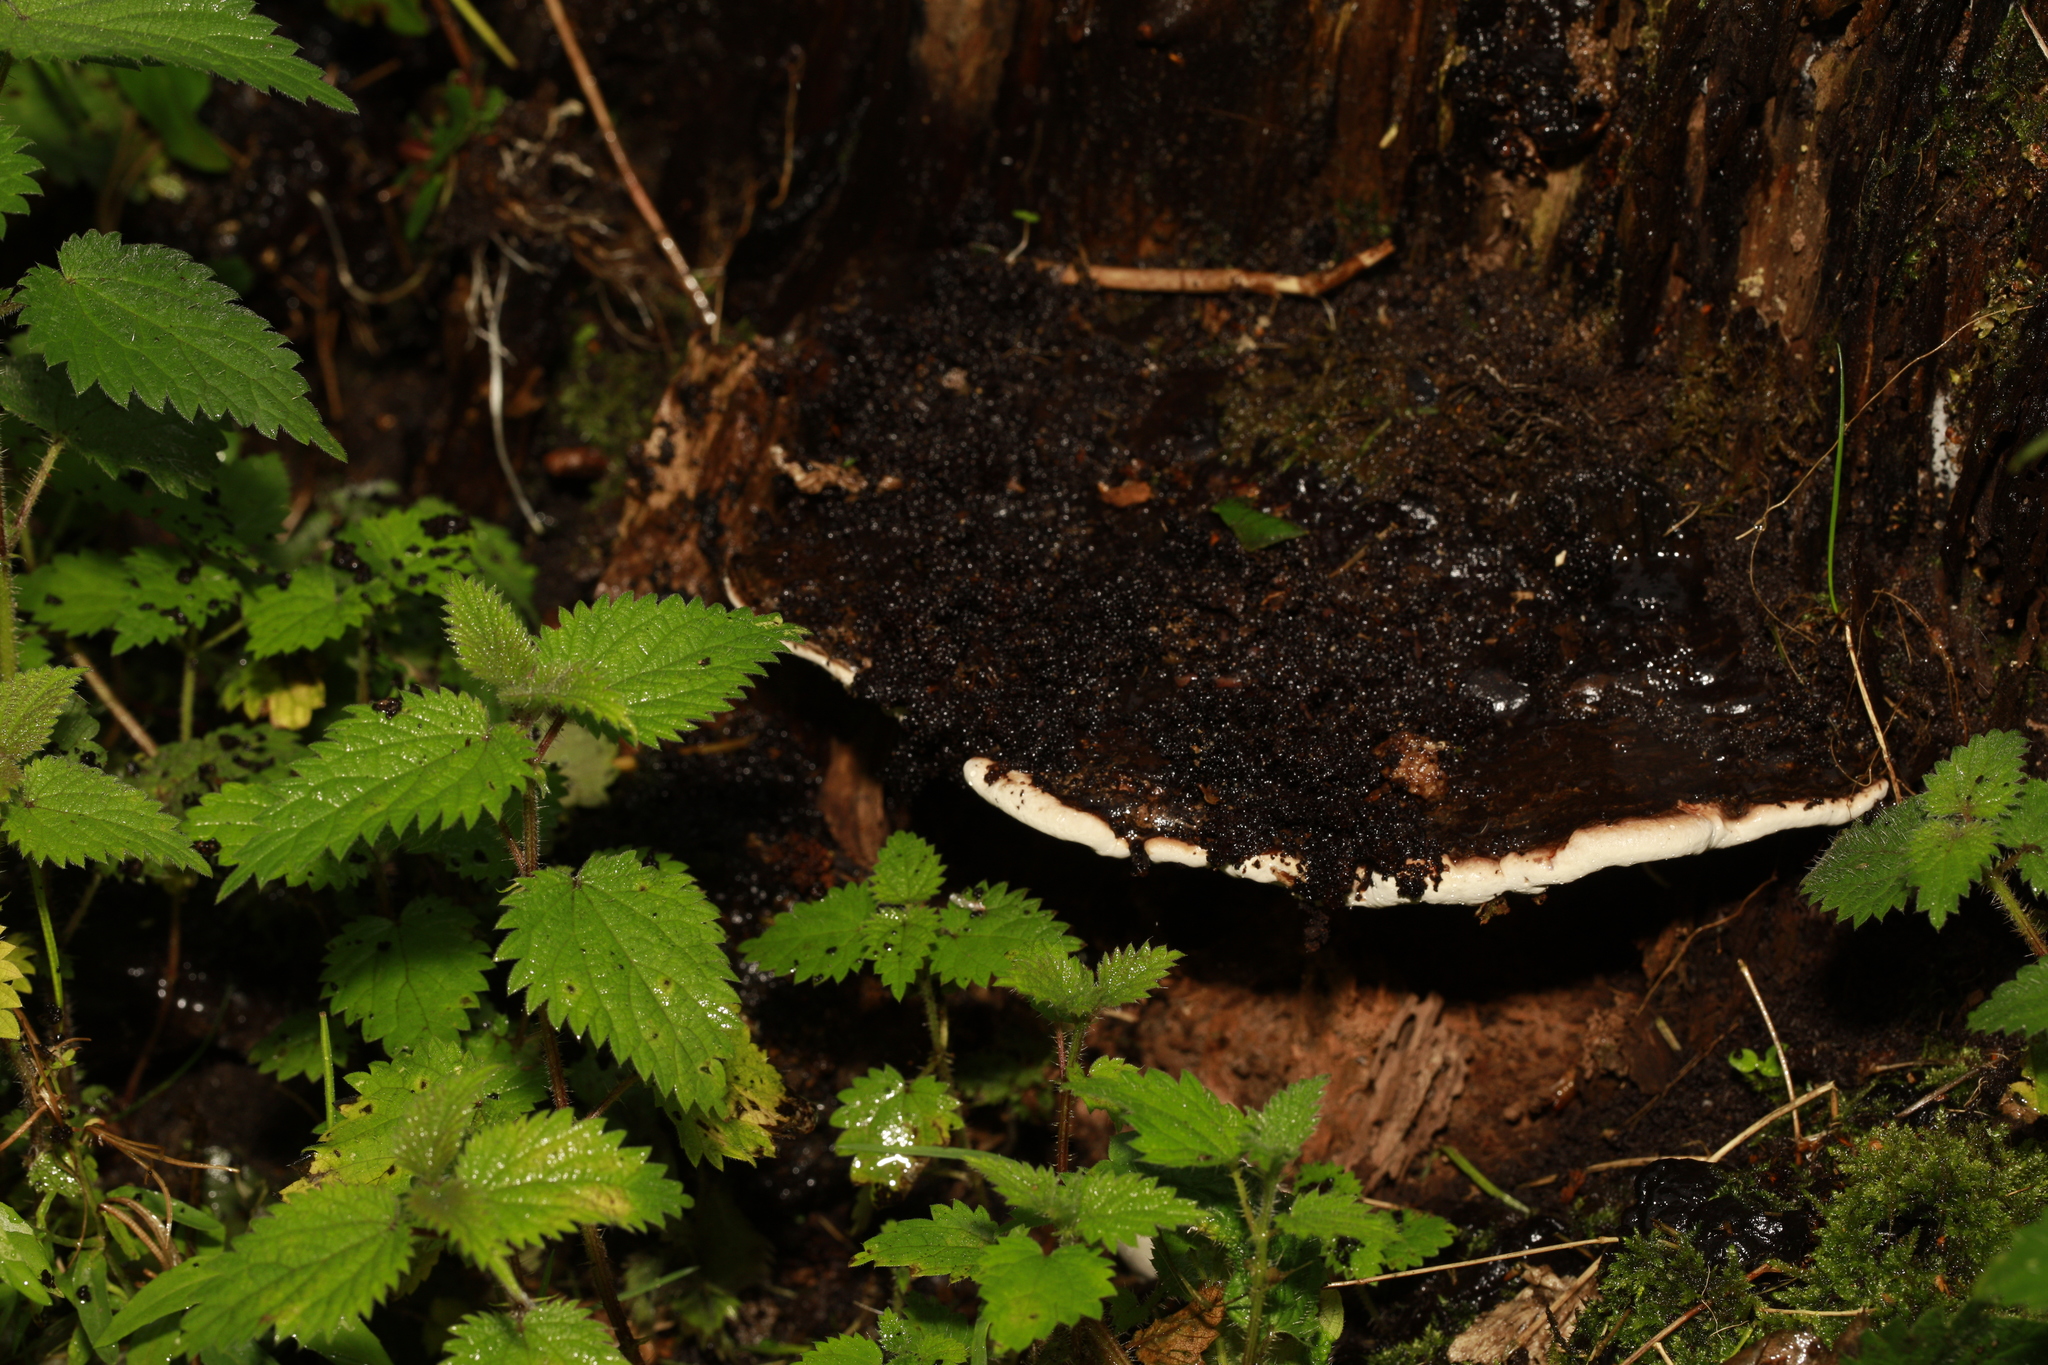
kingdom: Fungi
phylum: Basidiomycota
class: Agaricomycetes
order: Polyporales
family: Polyporaceae
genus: Ganoderma
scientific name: Ganoderma applanatum
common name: Artist's bracket
